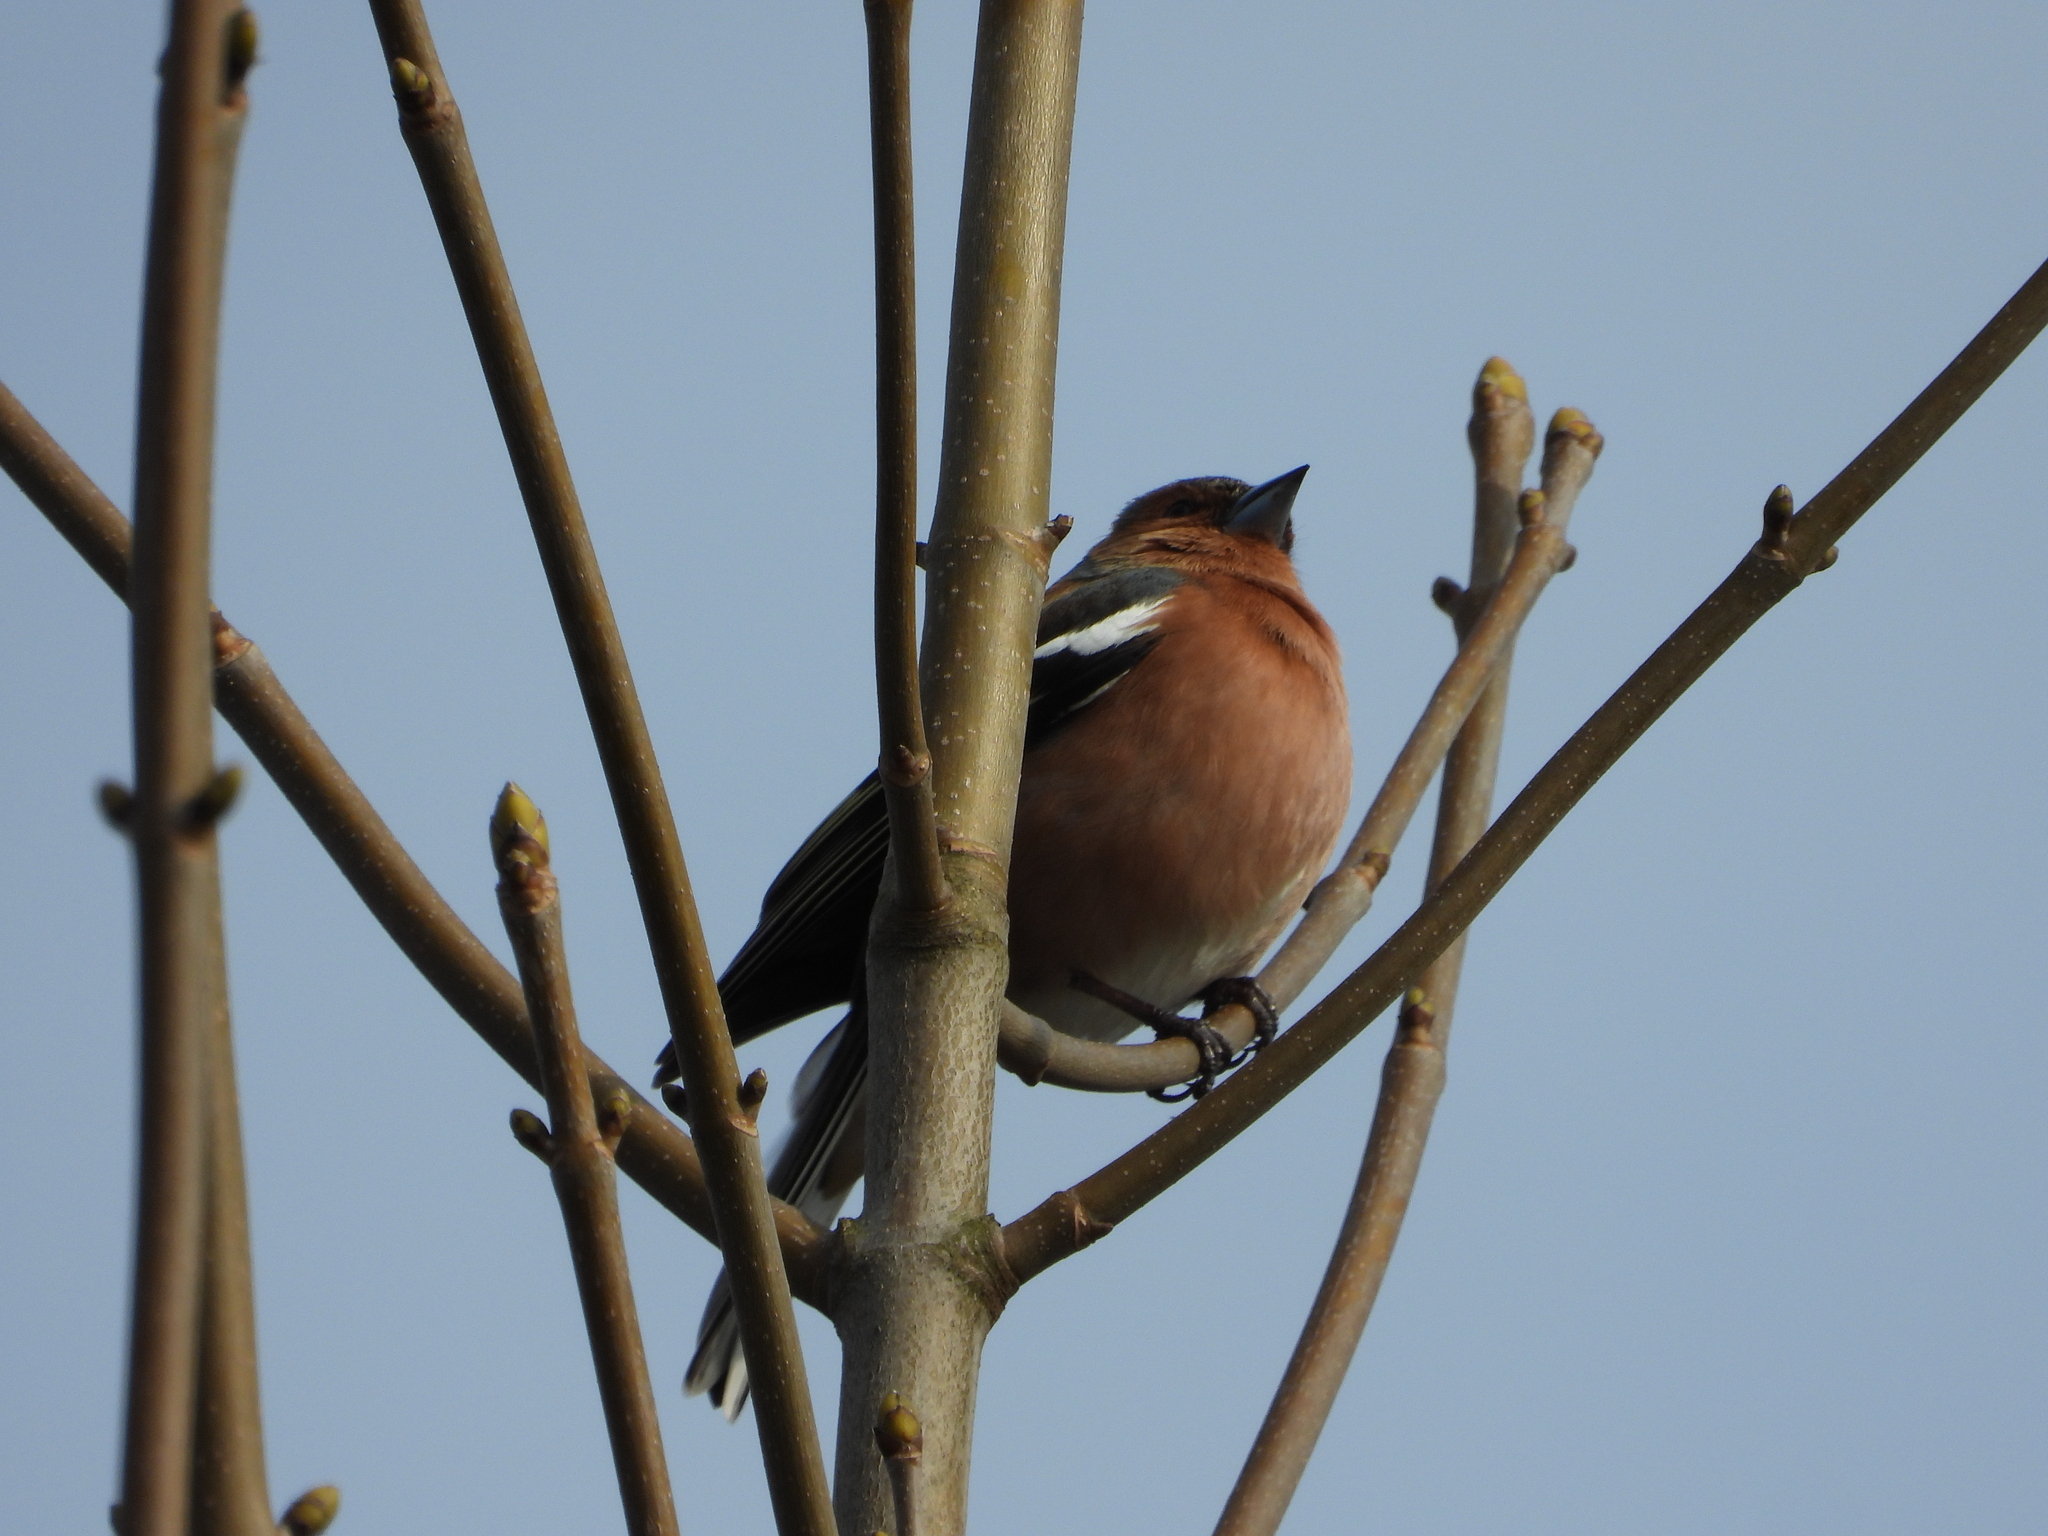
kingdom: Animalia
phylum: Chordata
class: Aves
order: Passeriformes
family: Fringillidae
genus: Fringilla
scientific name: Fringilla coelebs
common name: Common chaffinch
